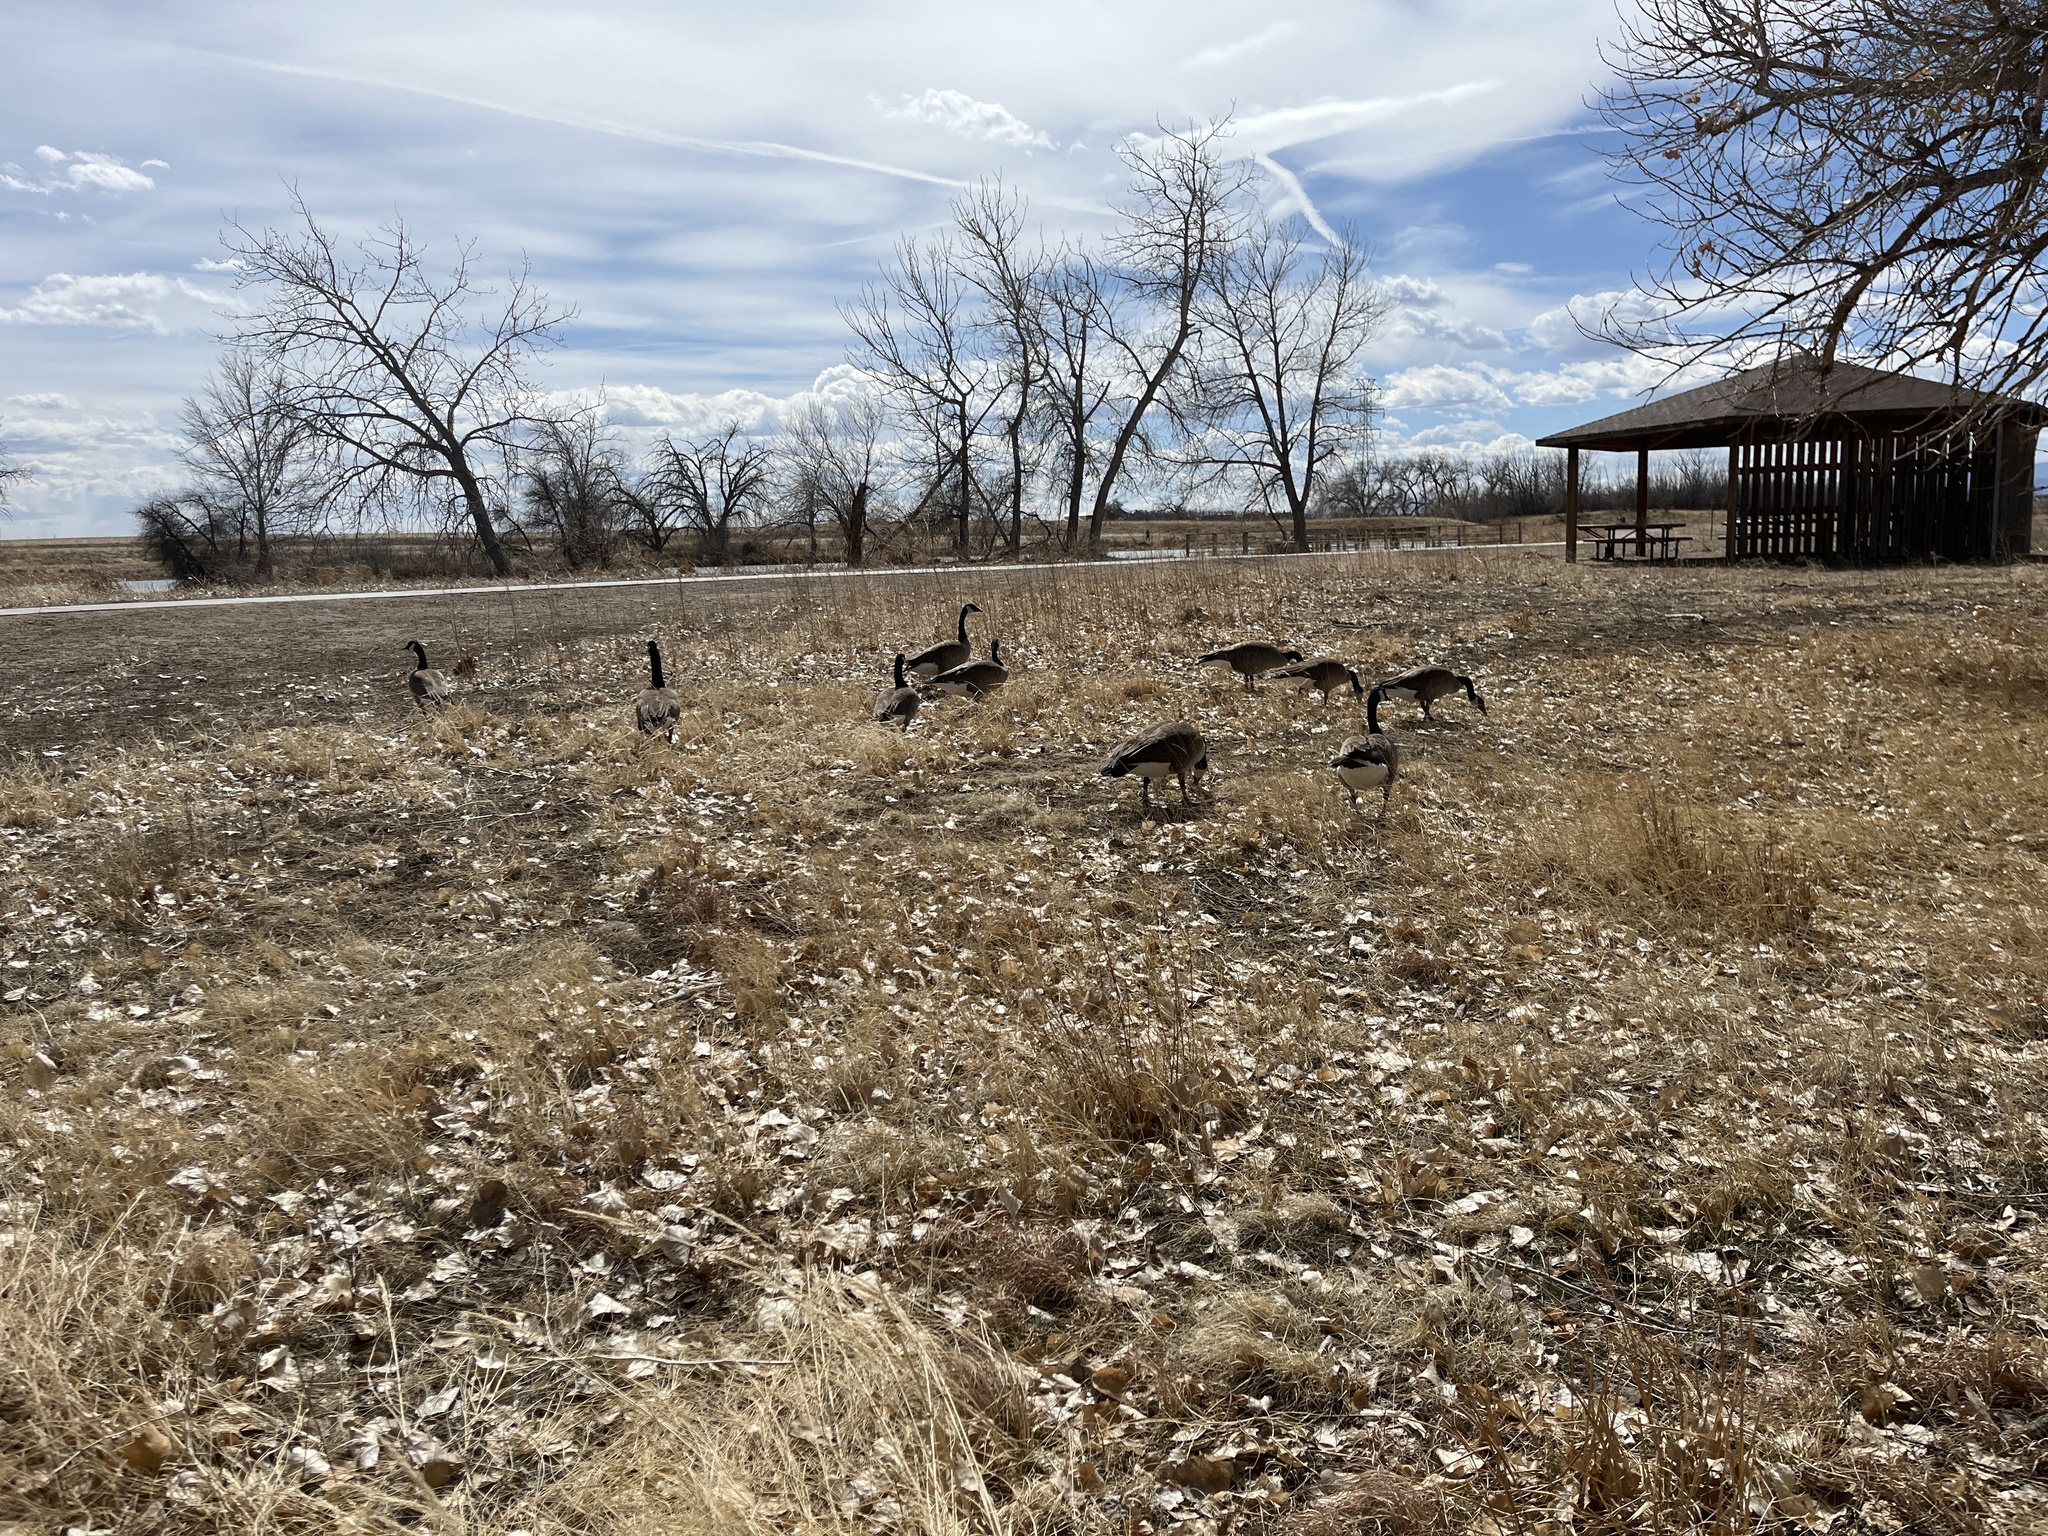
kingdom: Animalia
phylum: Chordata
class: Aves
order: Anseriformes
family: Anatidae
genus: Branta
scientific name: Branta canadensis
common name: Canada goose
